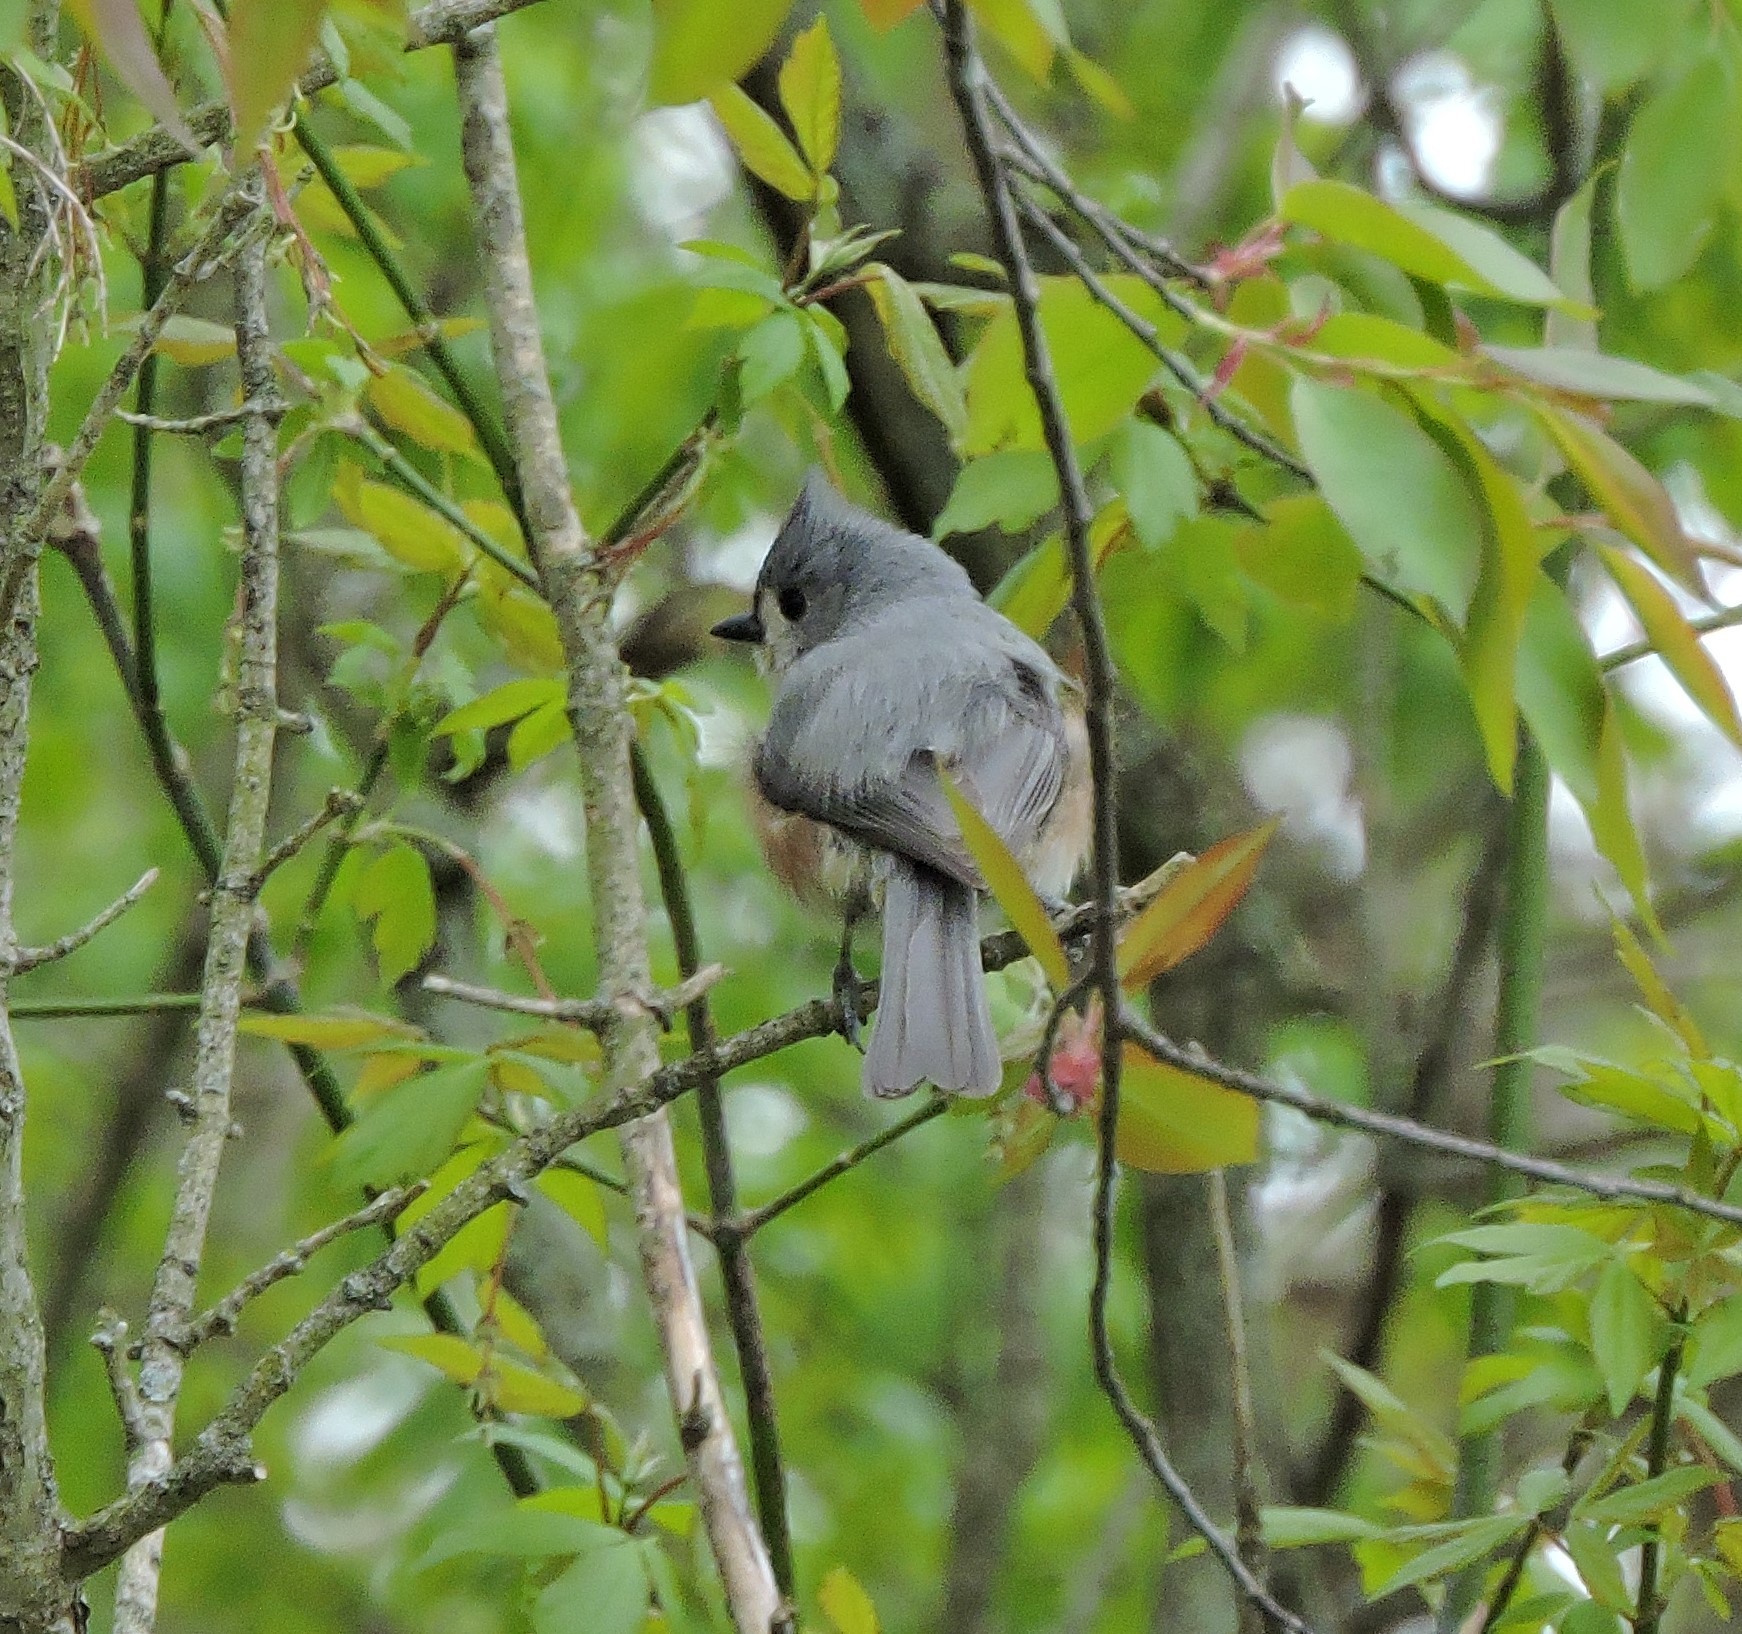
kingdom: Animalia
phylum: Chordata
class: Aves
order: Passeriformes
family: Paridae
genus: Baeolophus
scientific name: Baeolophus bicolor
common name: Tufted titmouse
